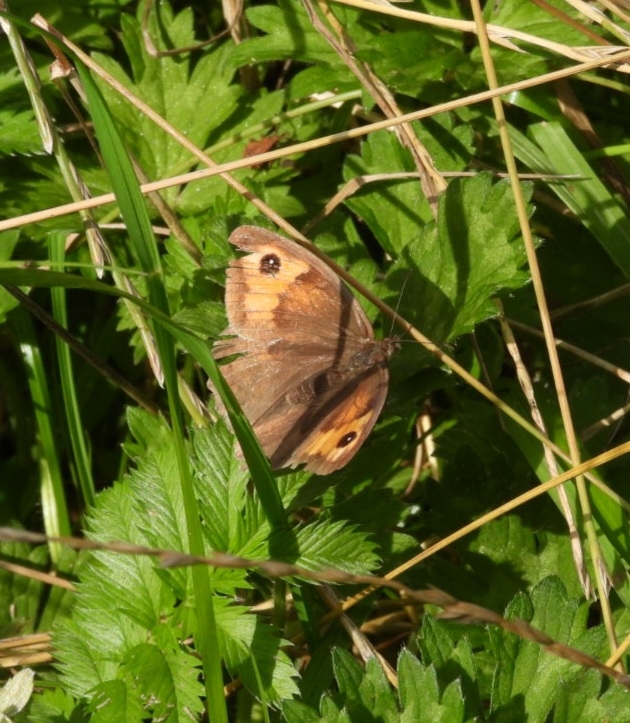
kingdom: Animalia
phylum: Arthropoda
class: Insecta
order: Lepidoptera
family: Nymphalidae
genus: Maniola
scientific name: Maniola jurtina
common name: Meadow brown
